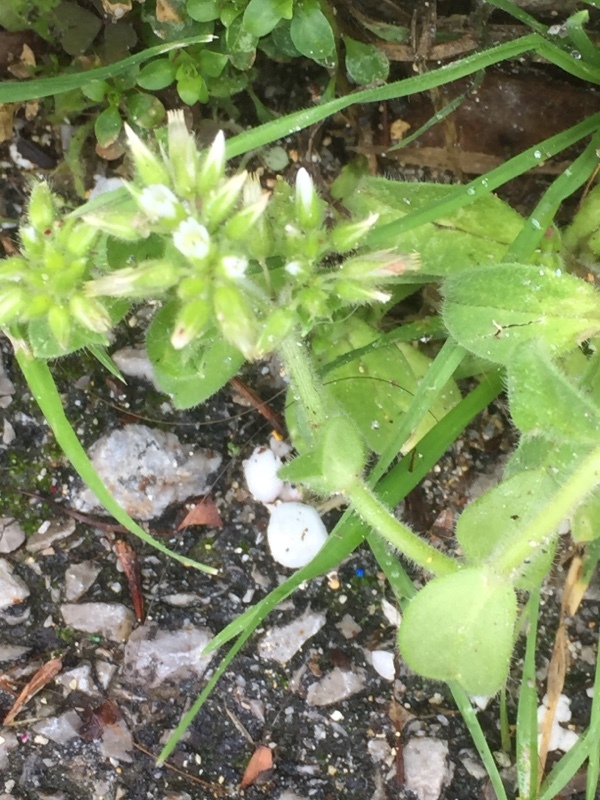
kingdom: Plantae
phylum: Tracheophyta
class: Magnoliopsida
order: Caryophyllales
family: Caryophyllaceae
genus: Cerastium
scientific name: Cerastium glomeratum
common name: Sticky chickweed
